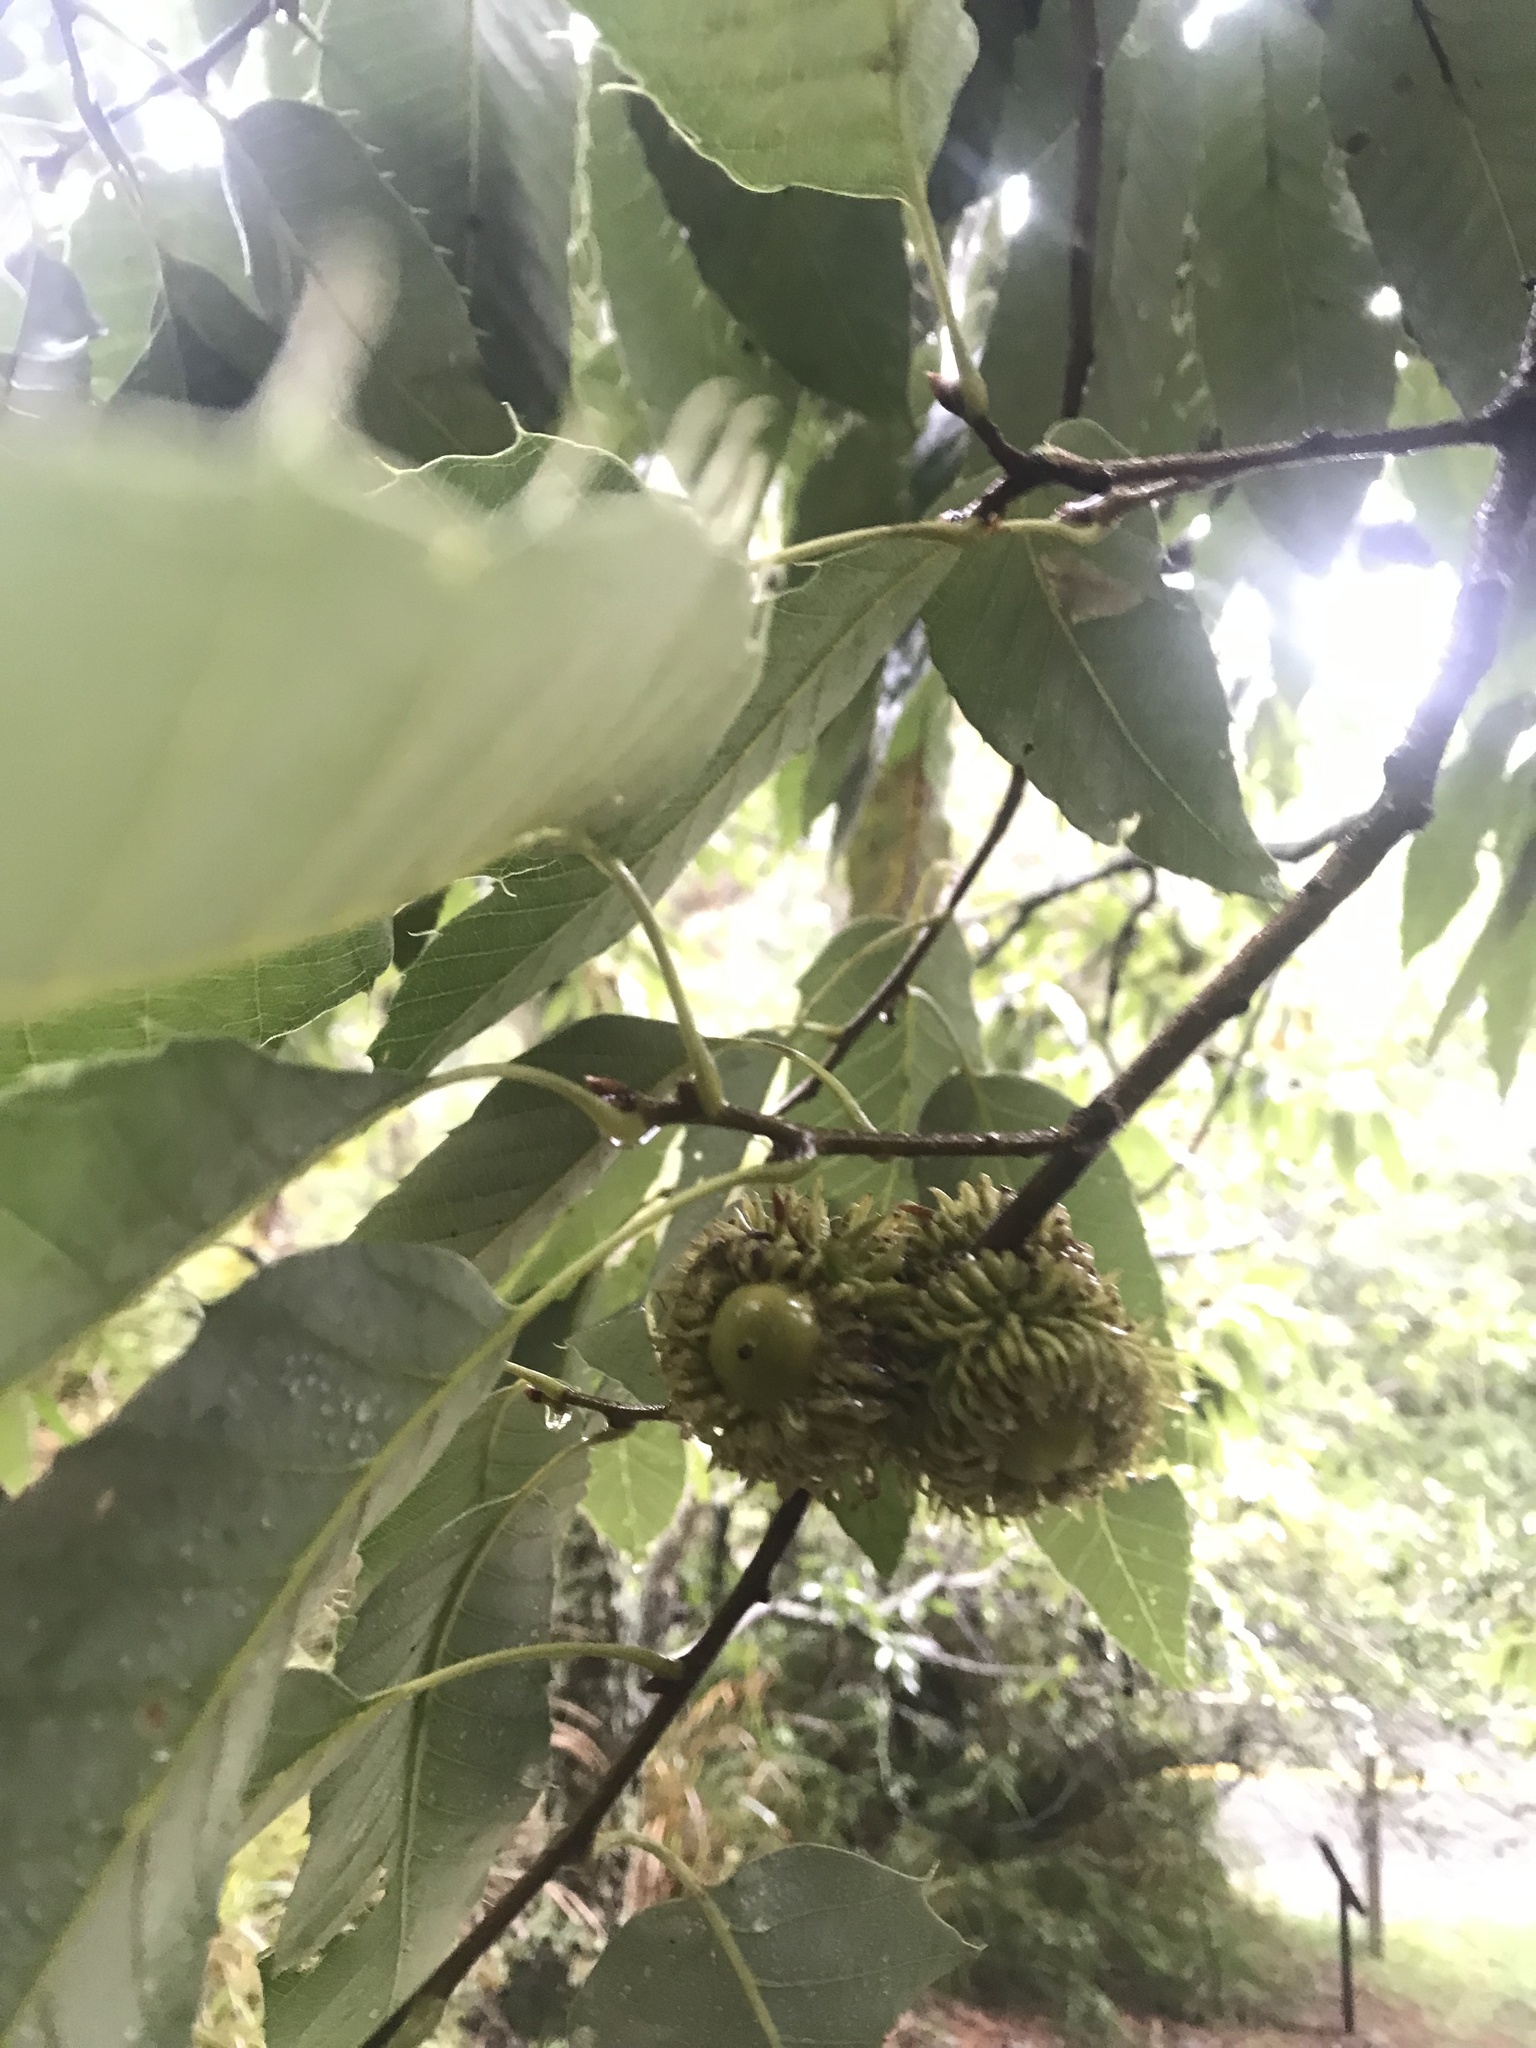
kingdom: Plantae
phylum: Tracheophyta
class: Magnoliopsida
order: Fagales
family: Fagaceae
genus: Quercus
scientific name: Quercus variabilis
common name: Chinese cork oak
